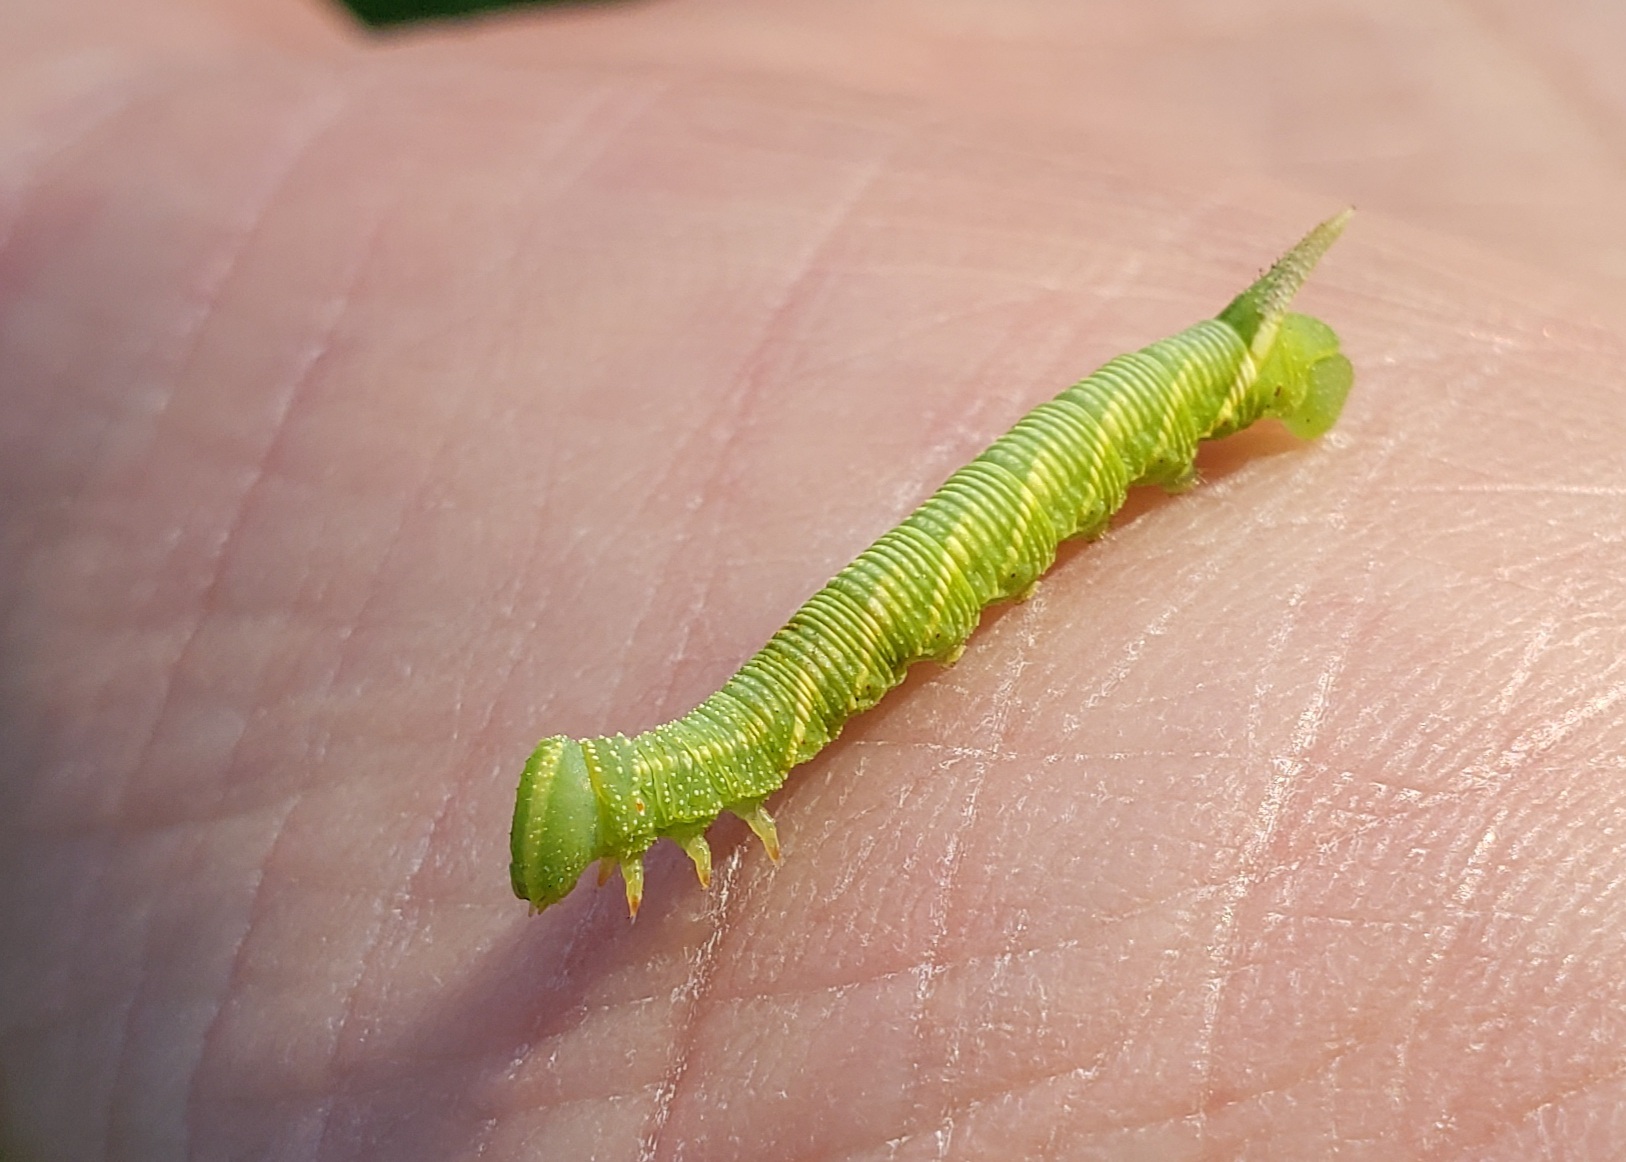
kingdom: Animalia
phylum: Arthropoda
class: Insecta
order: Lepidoptera
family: Sphingidae
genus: Deidamia
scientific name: Deidamia inscriptum
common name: Lettered sphinx
